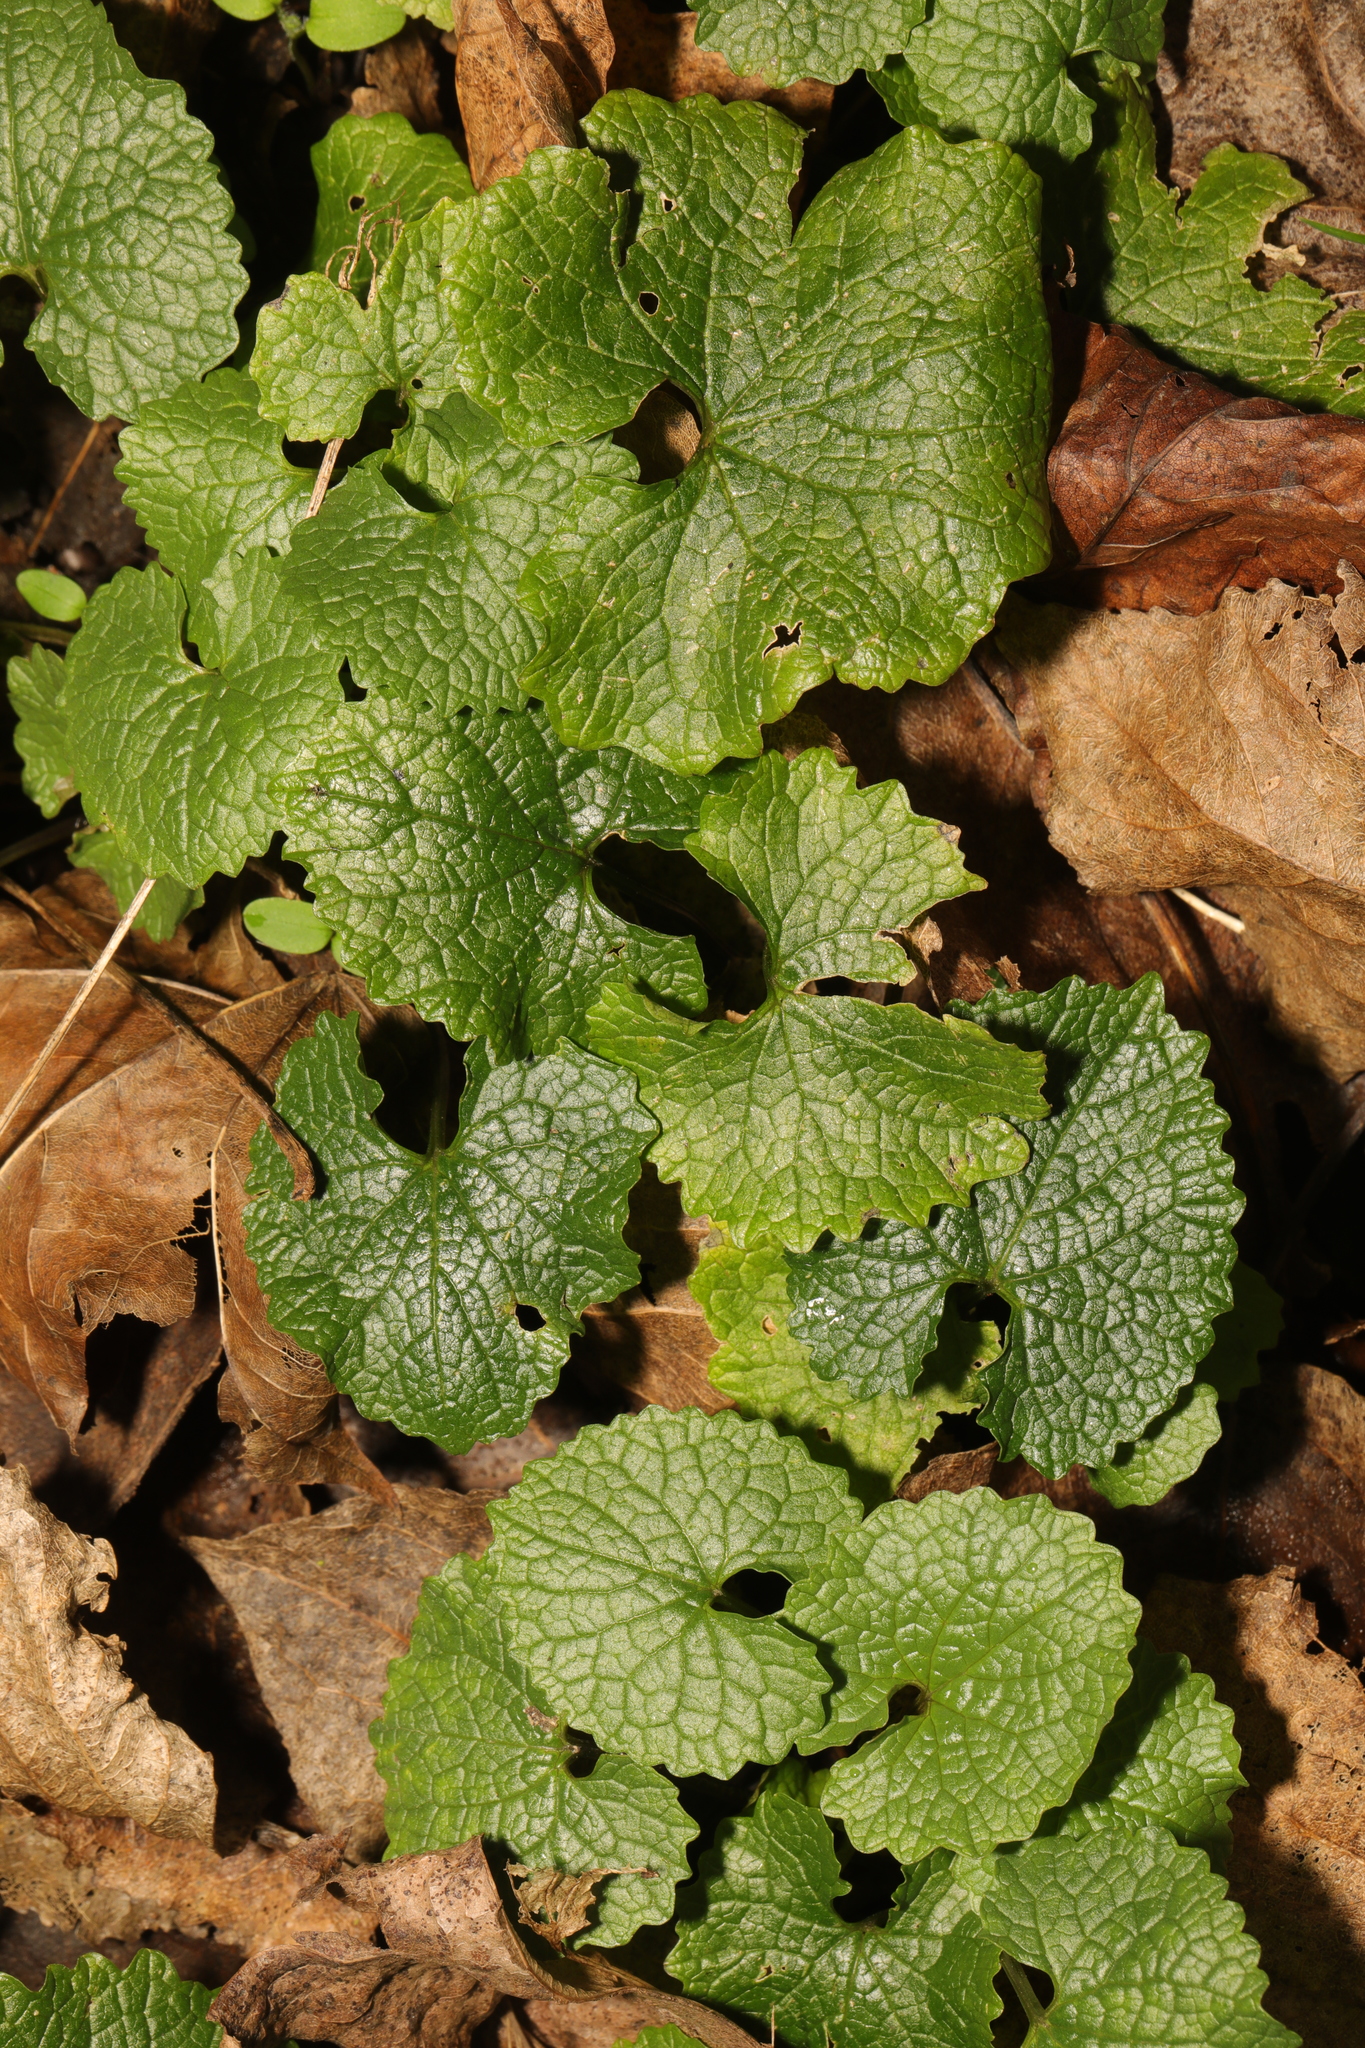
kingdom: Plantae
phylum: Tracheophyta
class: Magnoliopsida
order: Brassicales
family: Brassicaceae
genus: Alliaria
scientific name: Alliaria petiolata
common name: Garlic mustard
